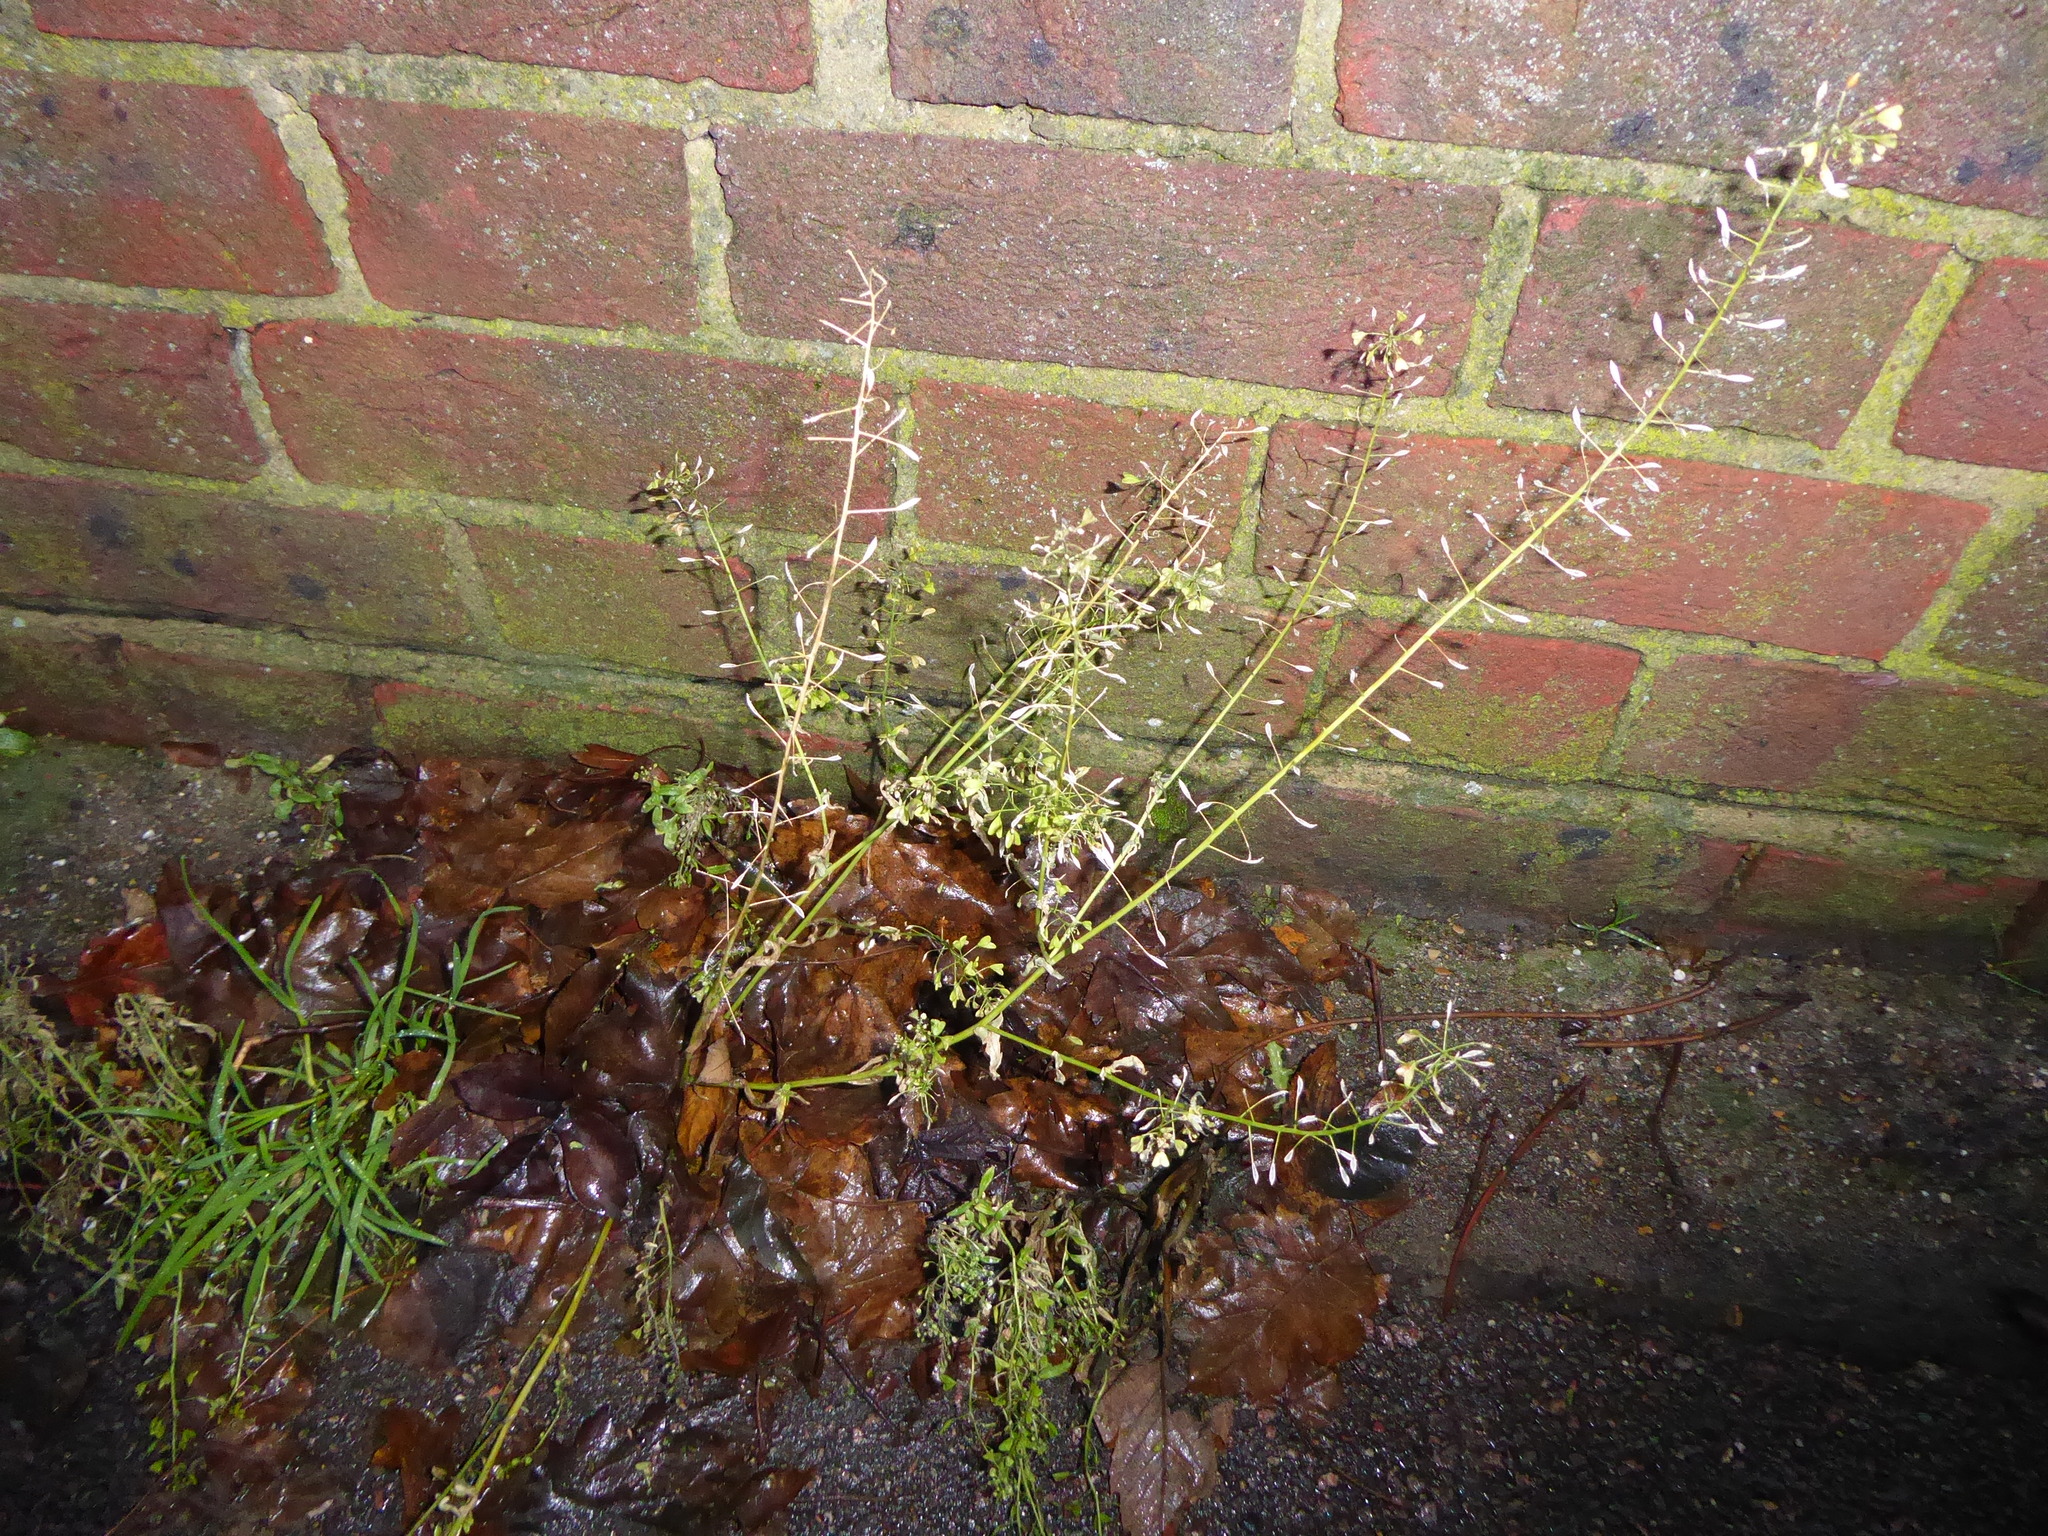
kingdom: Plantae
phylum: Tracheophyta
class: Magnoliopsida
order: Brassicales
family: Brassicaceae
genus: Capsella
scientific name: Capsella bursa-pastoris
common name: Shepherd's purse
